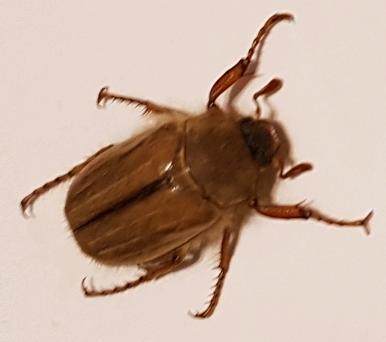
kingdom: Animalia
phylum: Arthropoda
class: Insecta
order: Coleoptera
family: Scarabaeidae
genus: Amphimallon
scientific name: Amphimallon solstitiale
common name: Summer chafer
